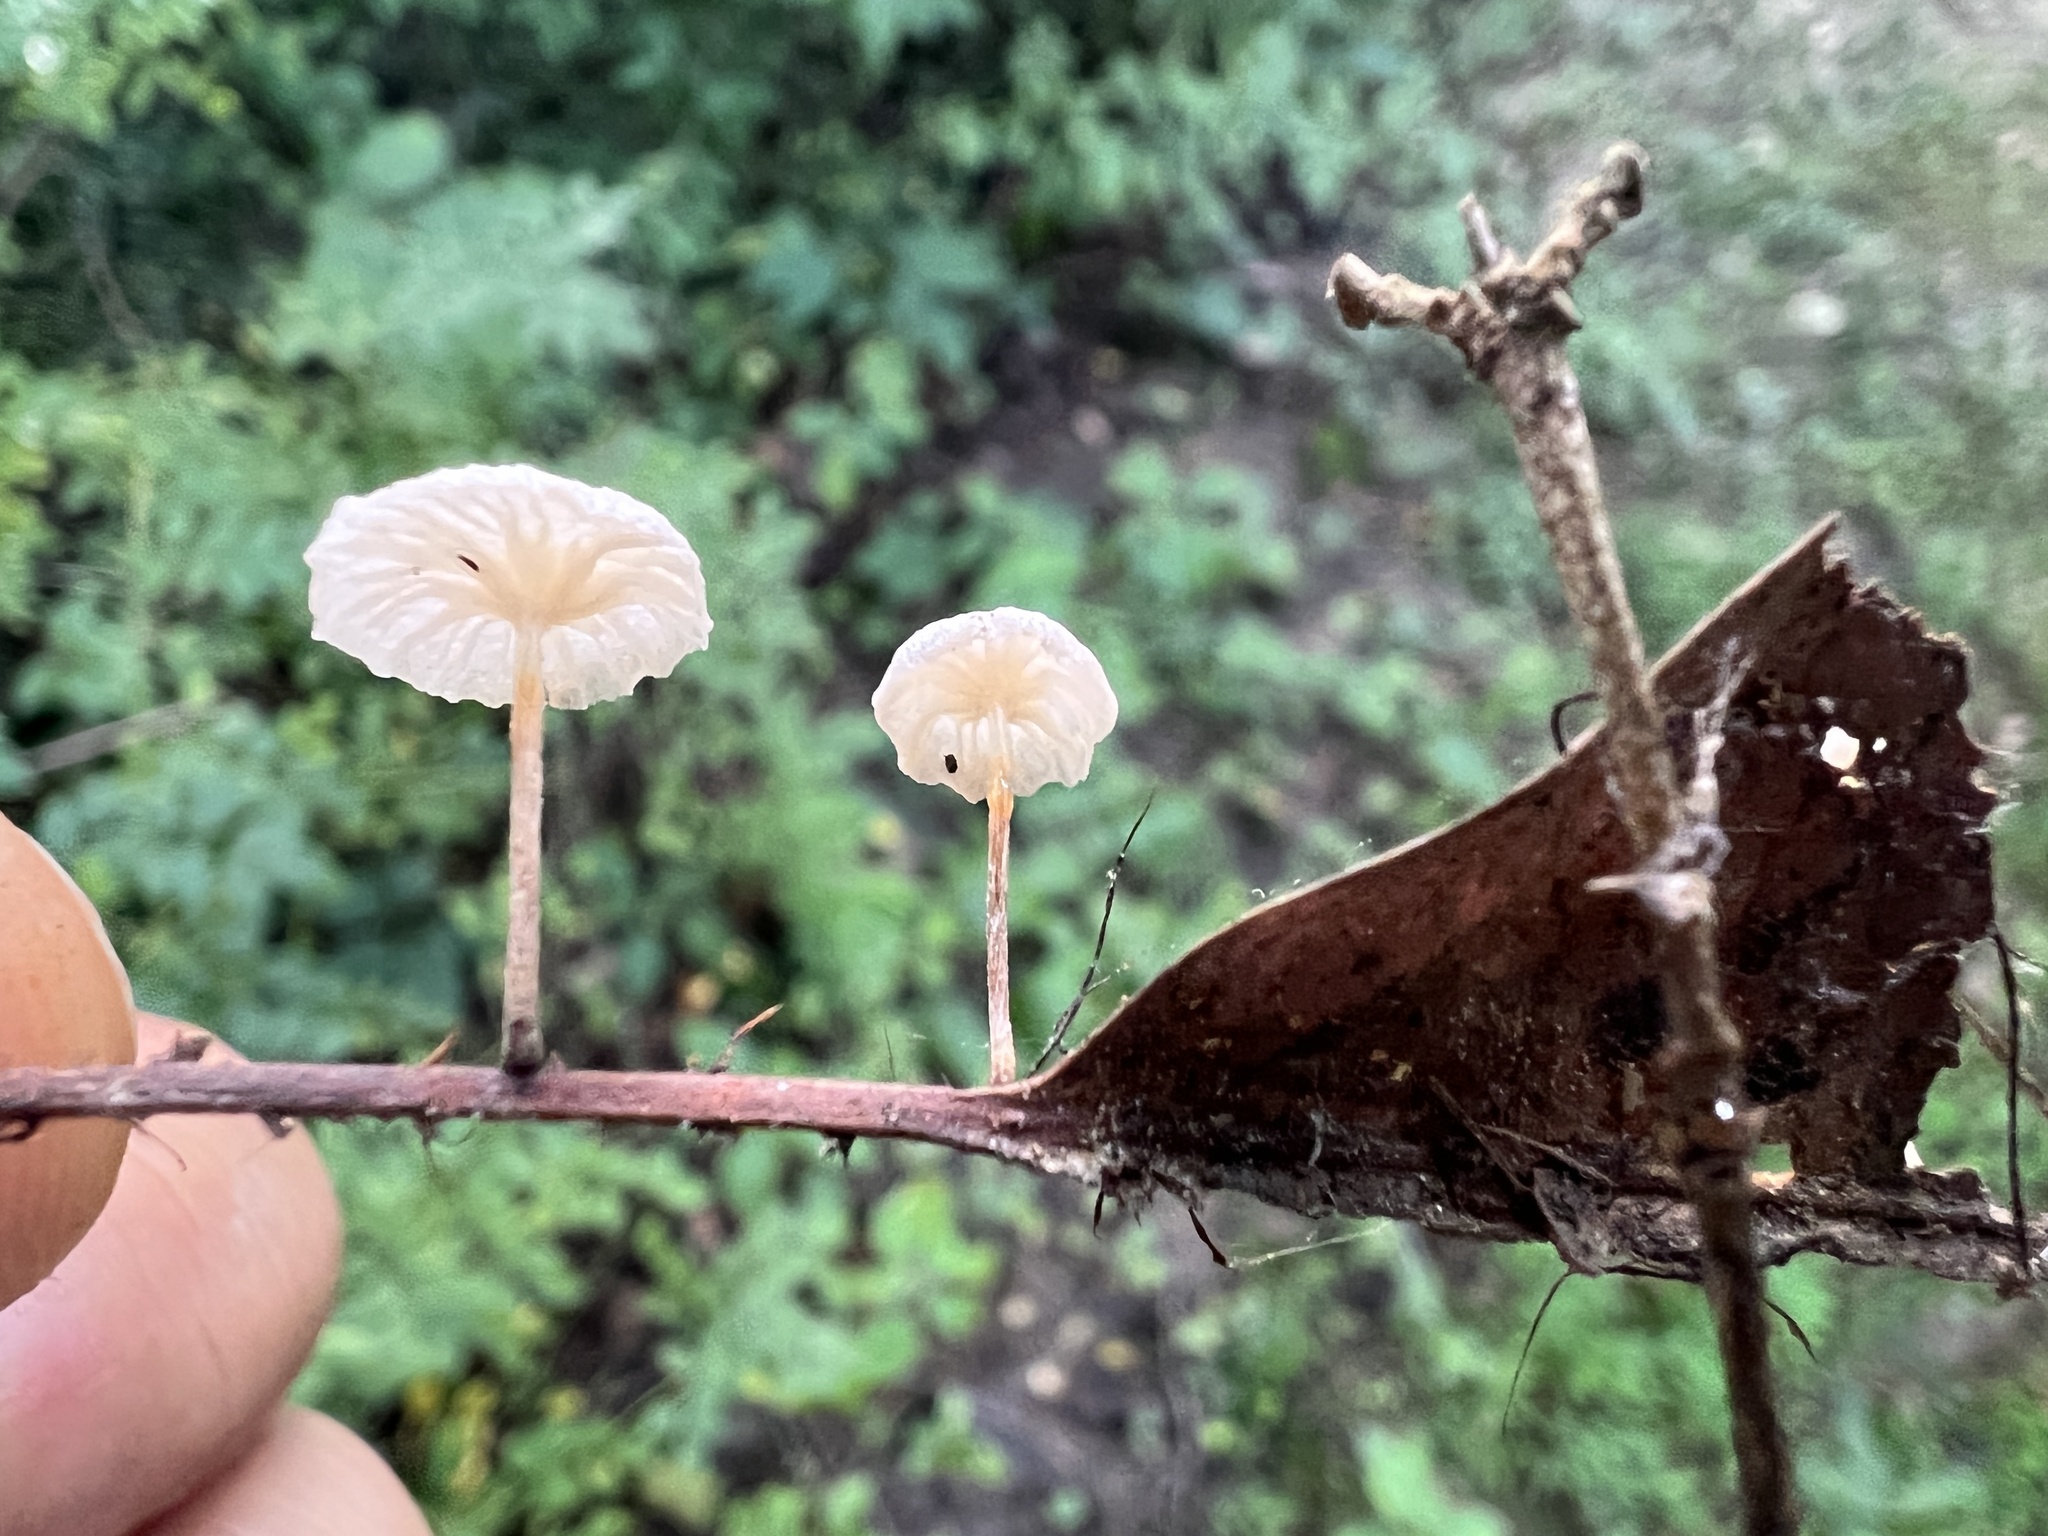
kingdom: Fungi
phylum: Basidiomycota
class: Agaricomycetes
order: Agaricales
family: Marasmiaceae
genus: Tetrapyrgos
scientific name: Tetrapyrgos nigripes
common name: Black-stalked marasmius
